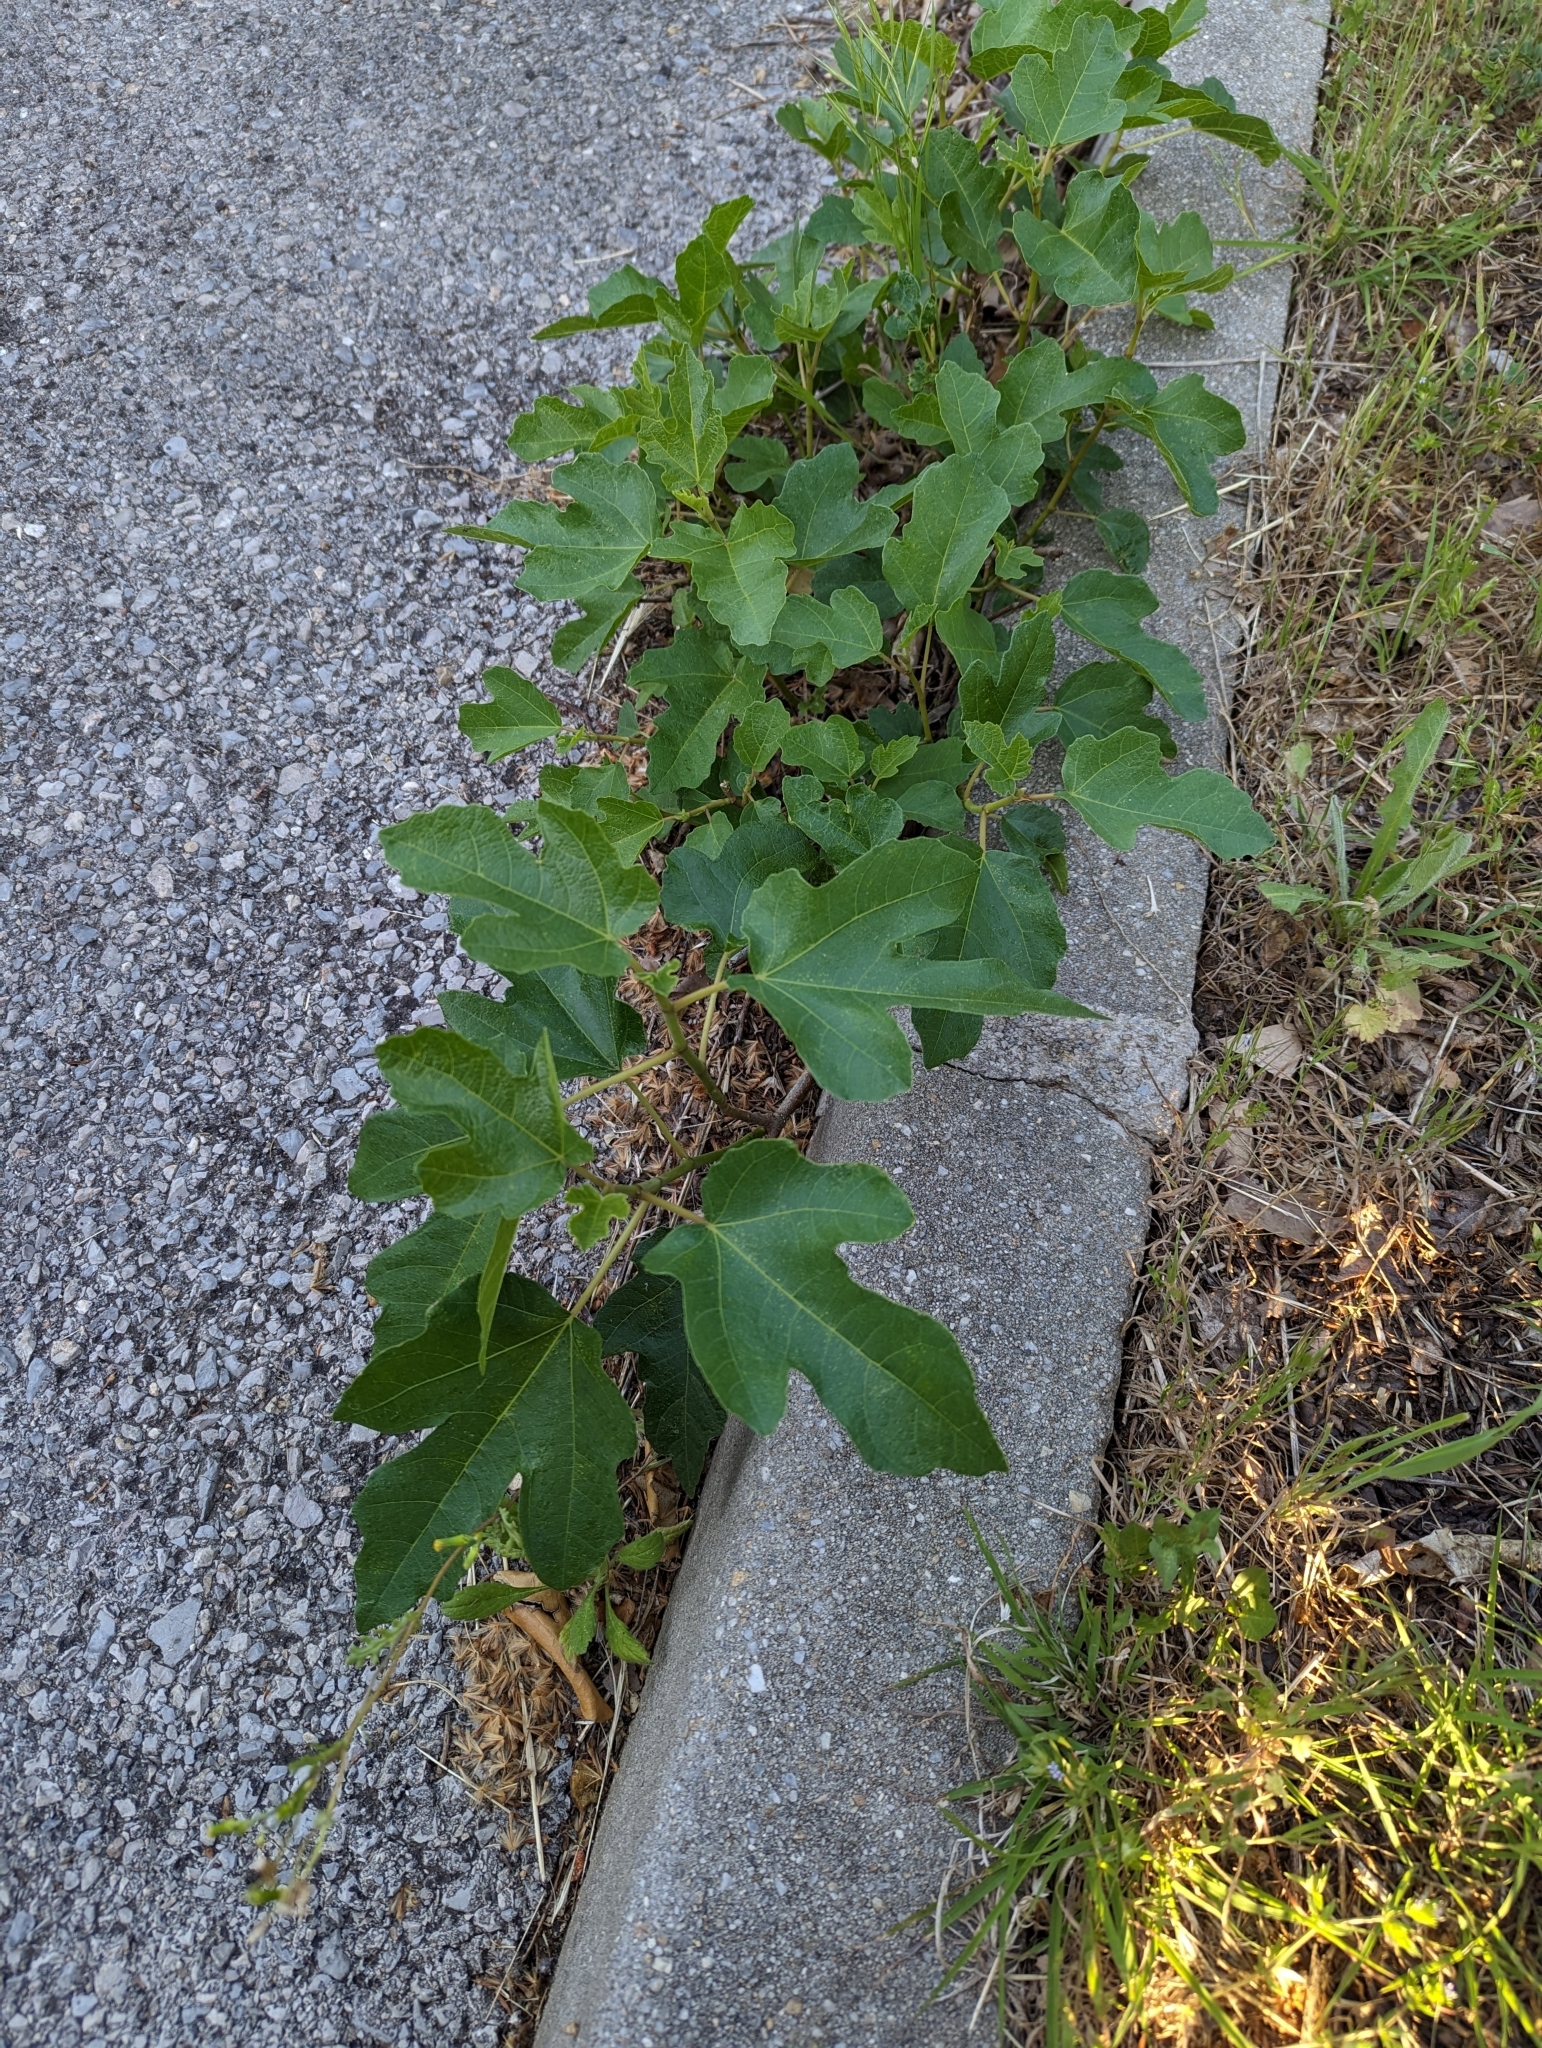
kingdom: Plantae
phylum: Tracheophyta
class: Magnoliopsida
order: Rosales
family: Moraceae
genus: Ficus
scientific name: Ficus carica
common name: Fig
